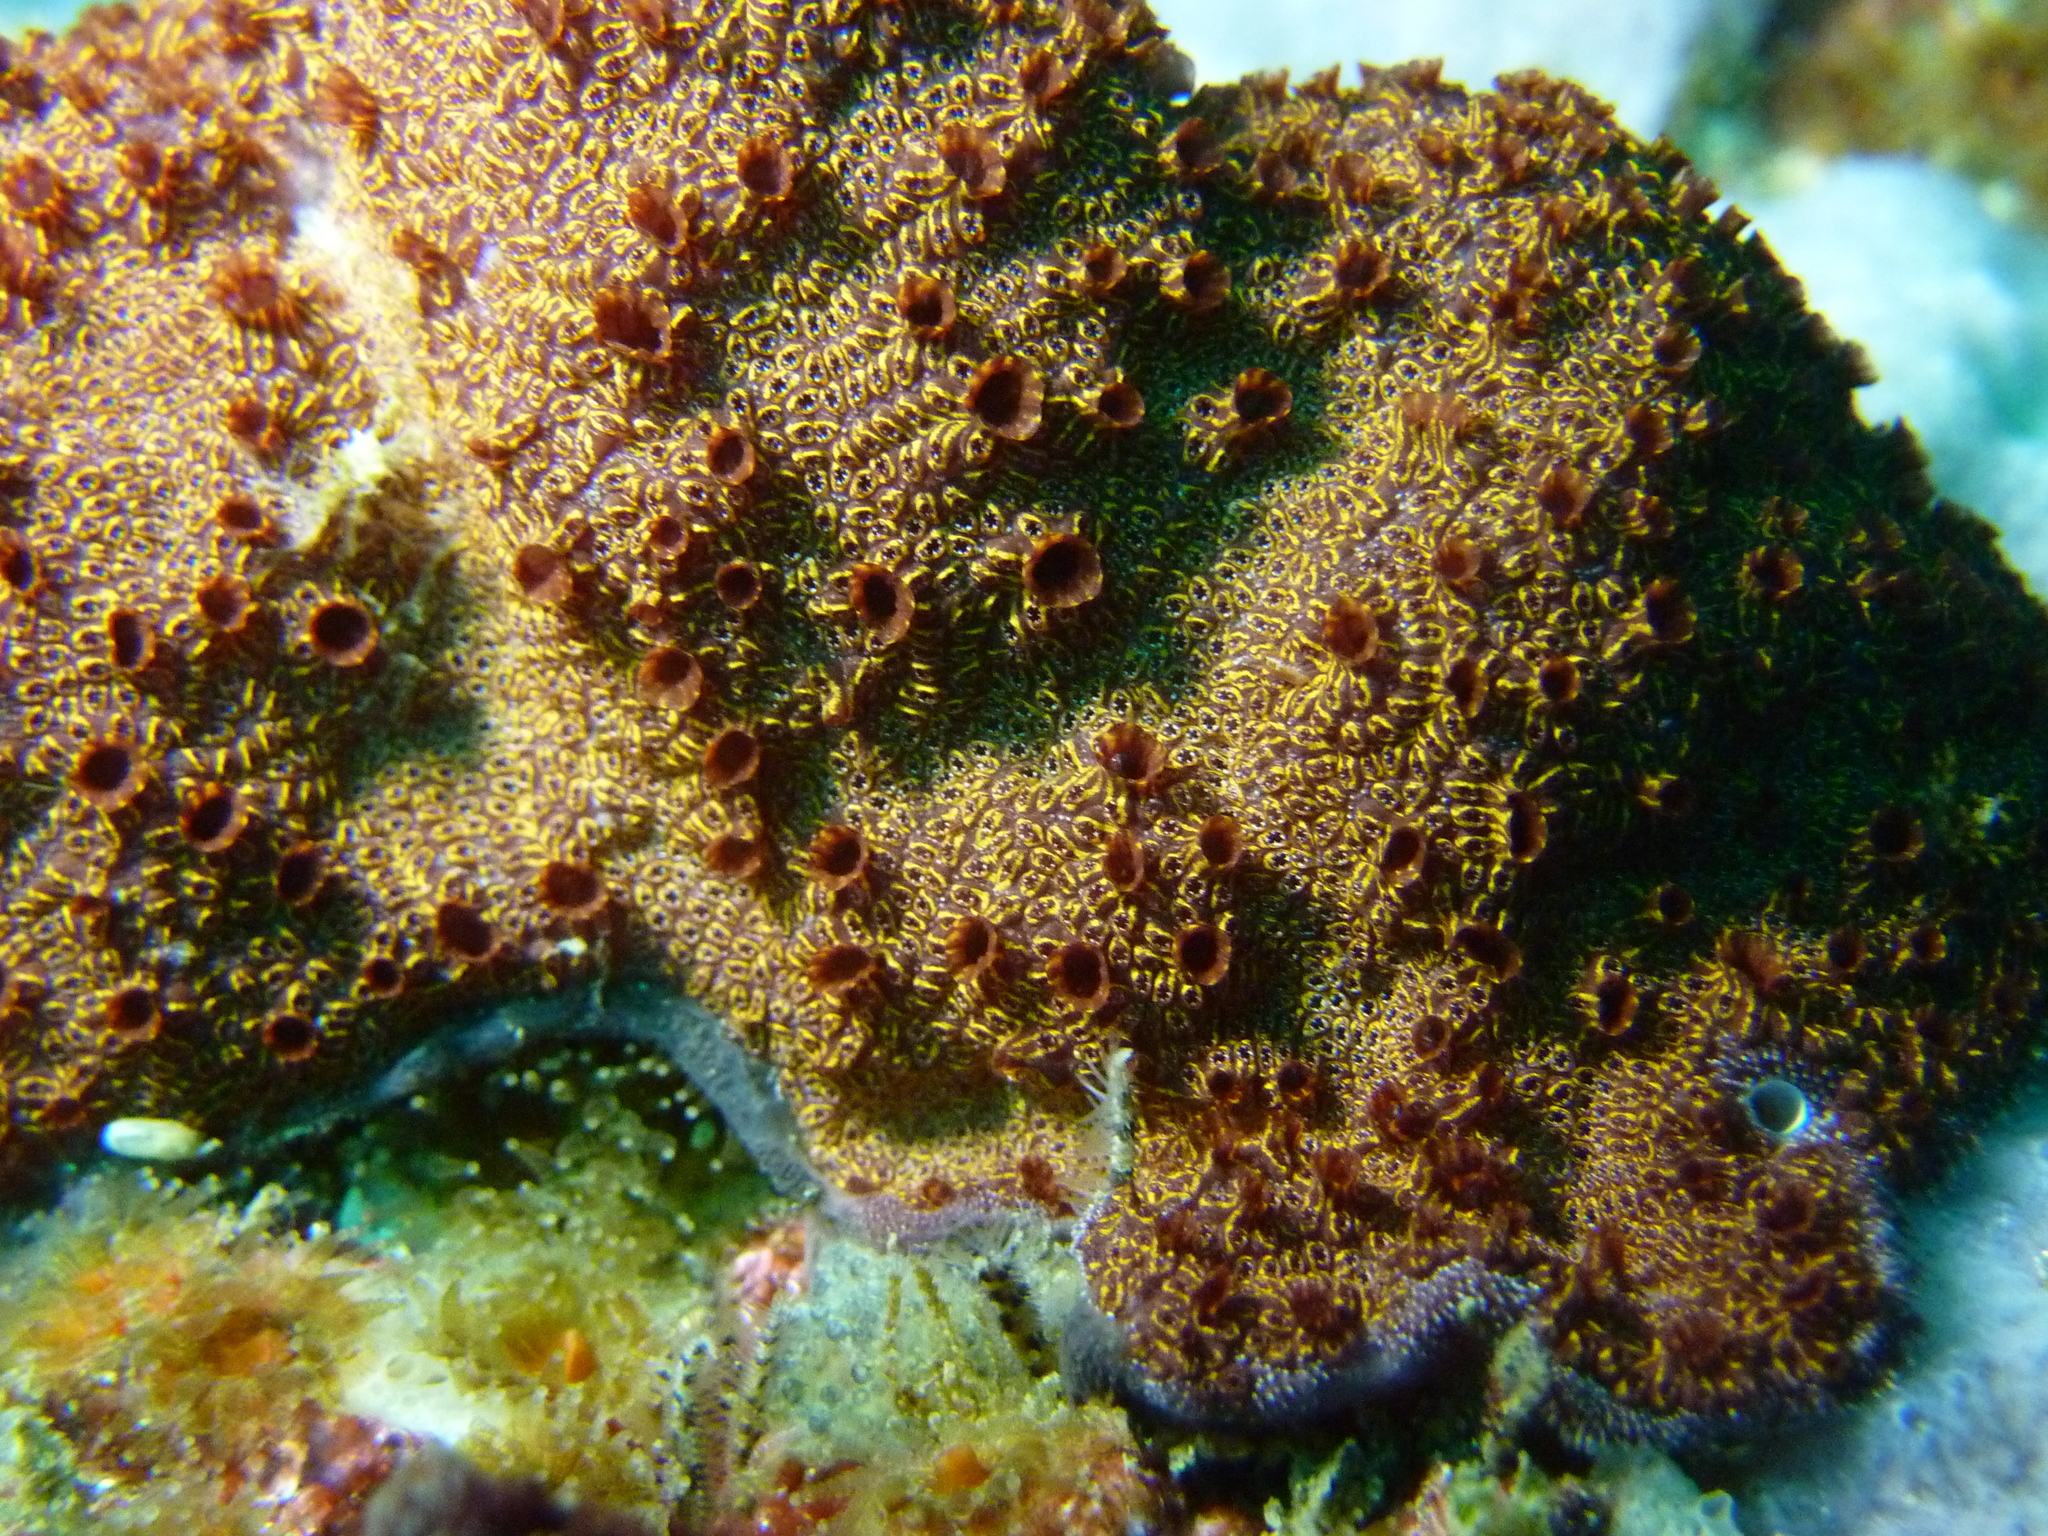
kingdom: Animalia
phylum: Chordata
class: Ascidiacea
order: Stolidobranchia
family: Styelidae
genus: Botrylloides
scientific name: Botrylloides leachii
